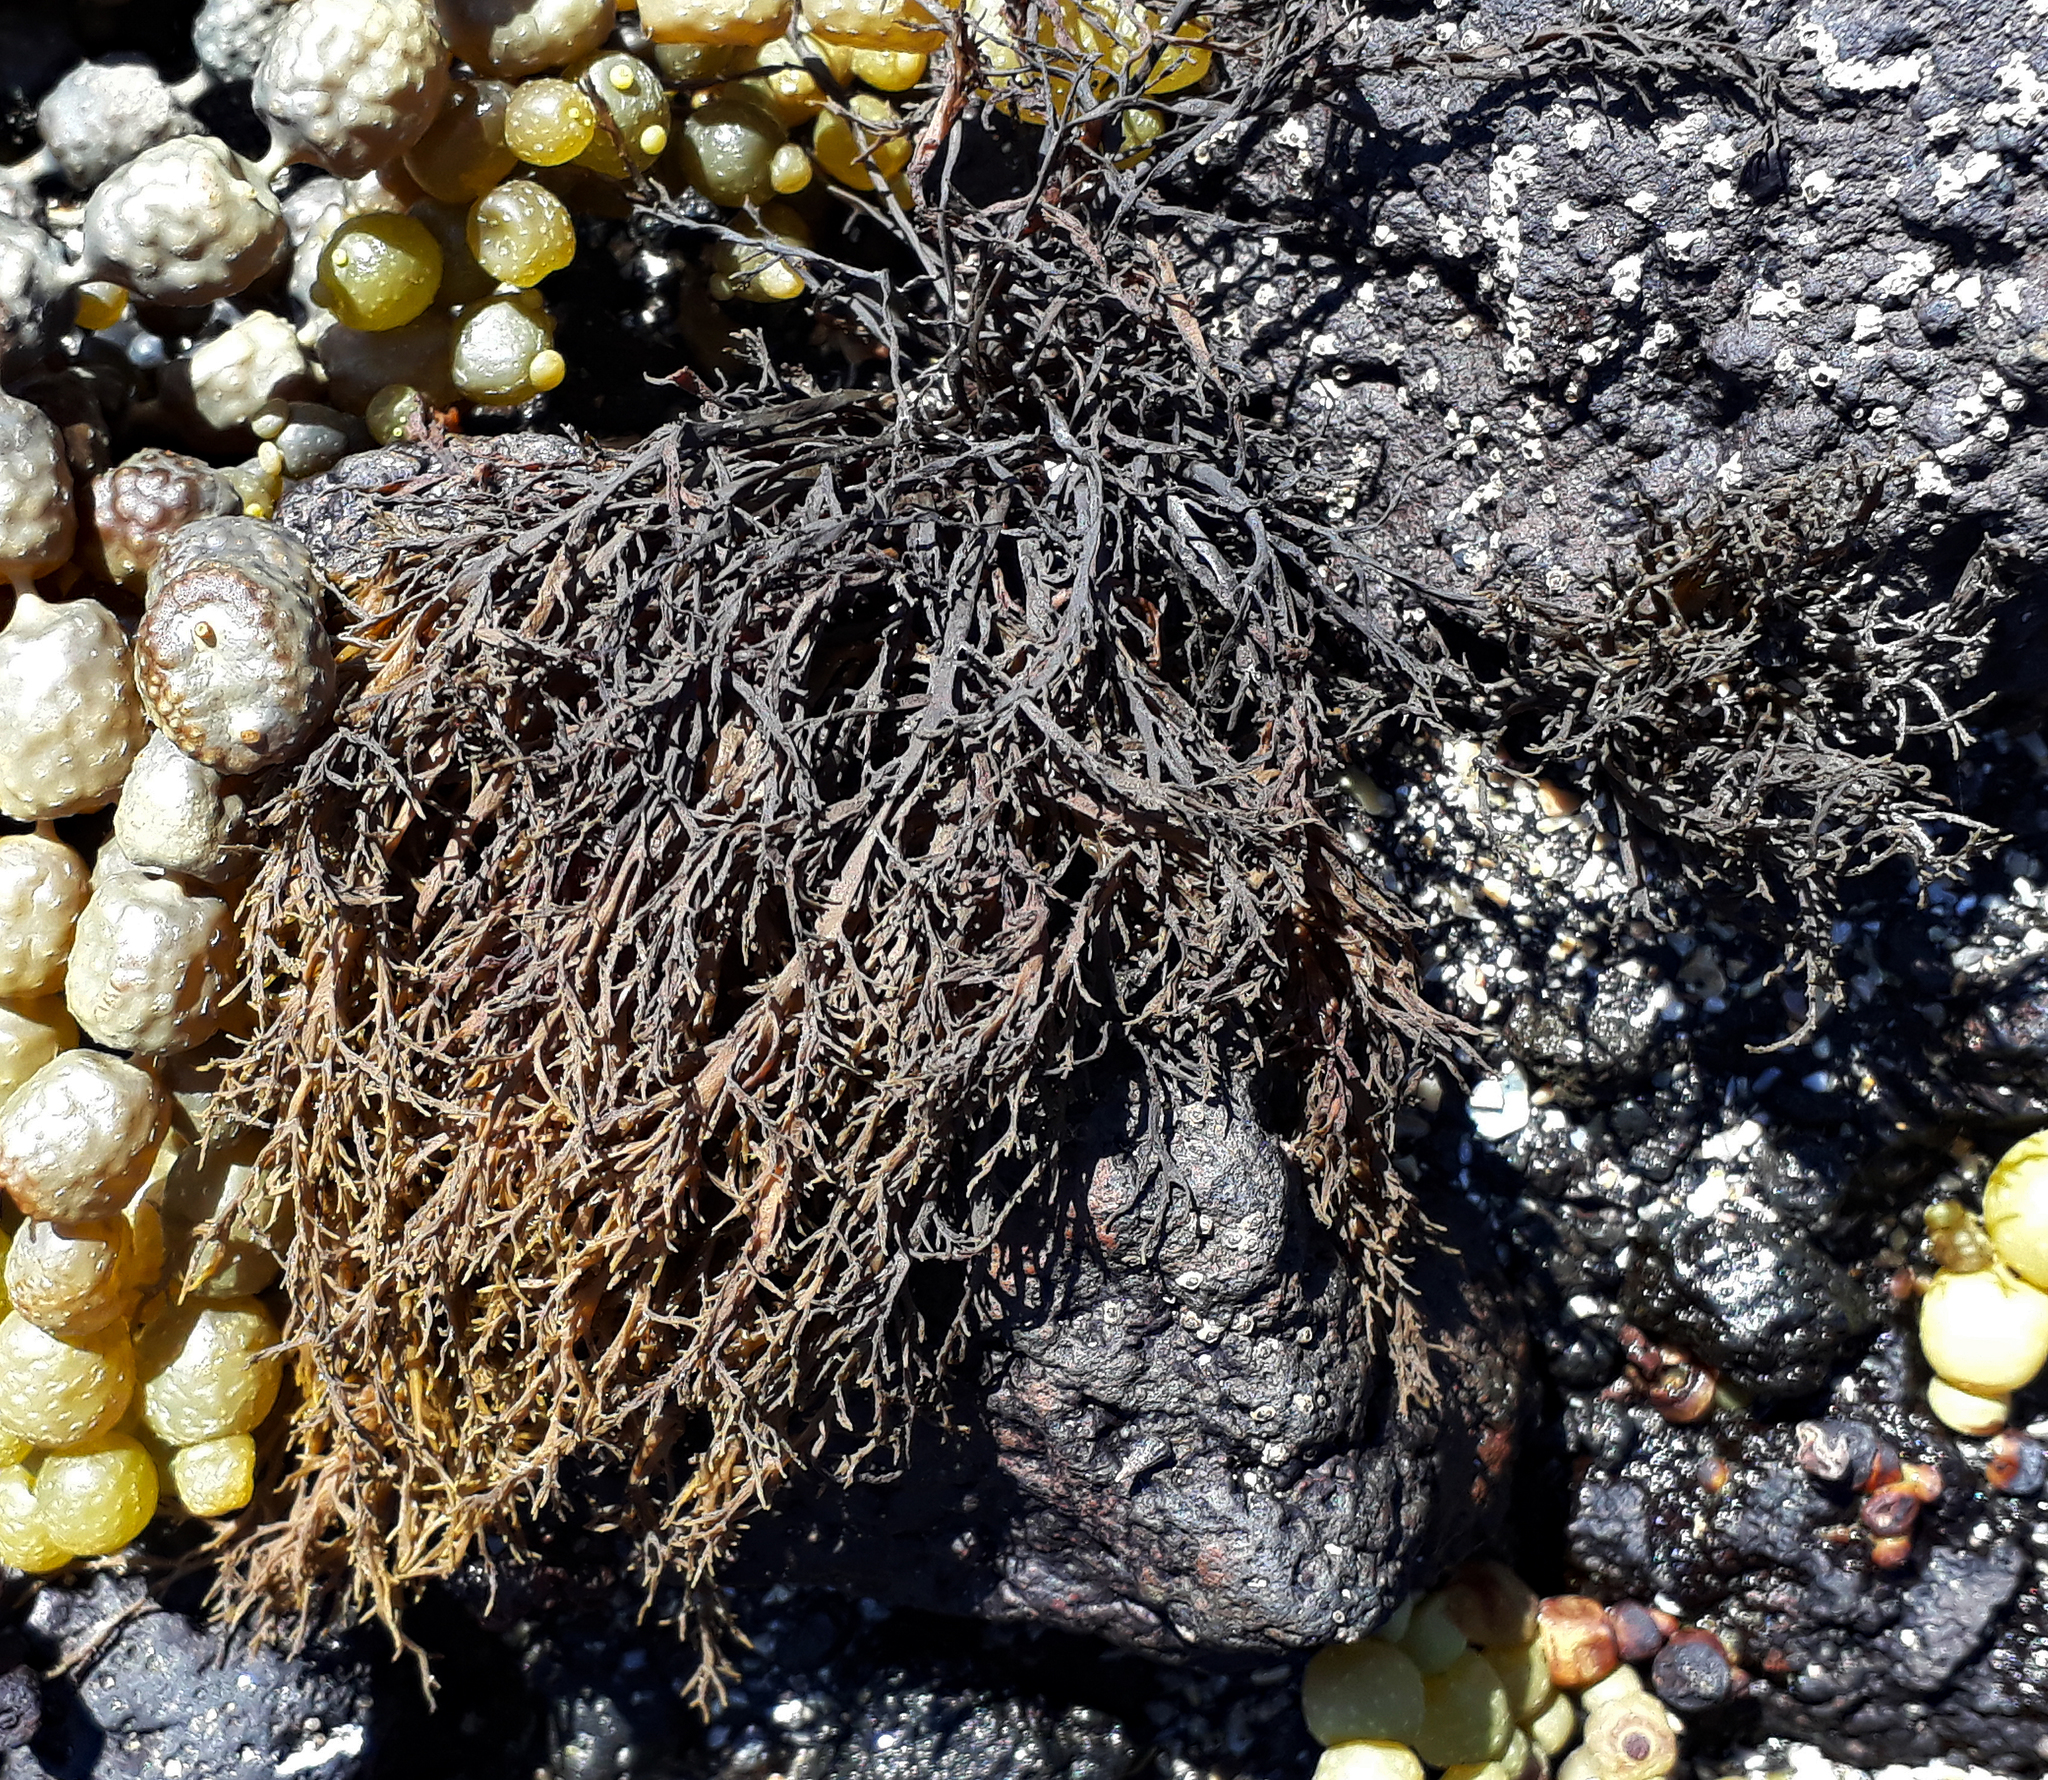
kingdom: Chromista
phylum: Ochrophyta
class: Phaeophyceae
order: Scytothamnales
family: Scytothamnaceae
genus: Scytothamnus
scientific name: Scytothamnus australis
